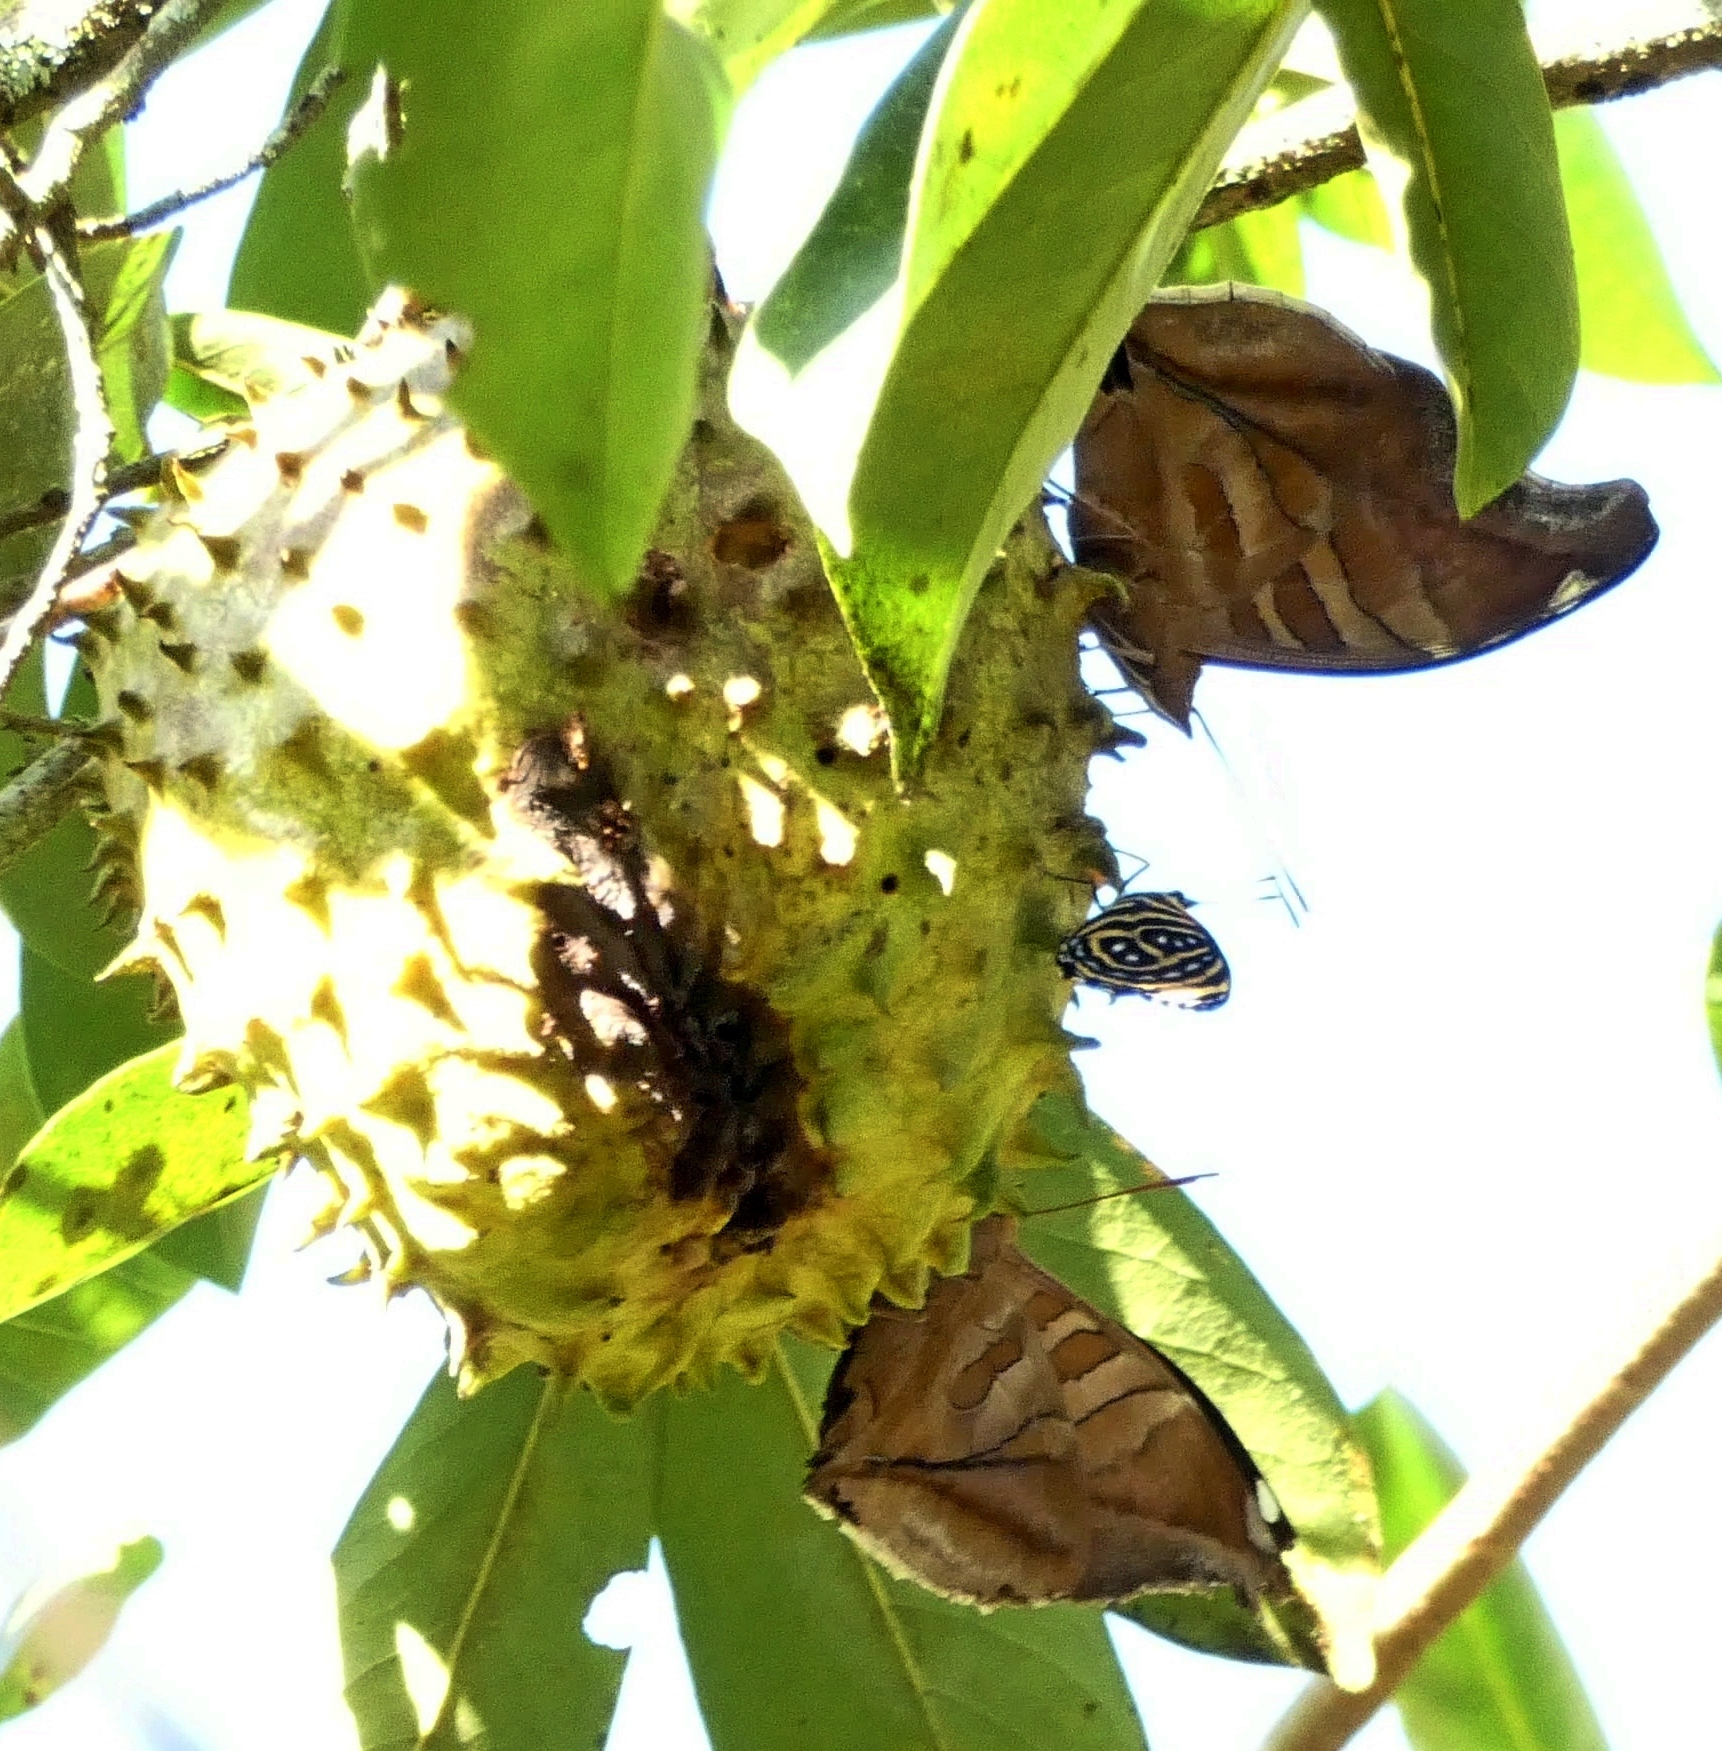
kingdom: Animalia
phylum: Arthropoda
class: Insecta
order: Lepidoptera
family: Nymphalidae
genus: Historis
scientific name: Historis odius
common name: Orion cecropian
